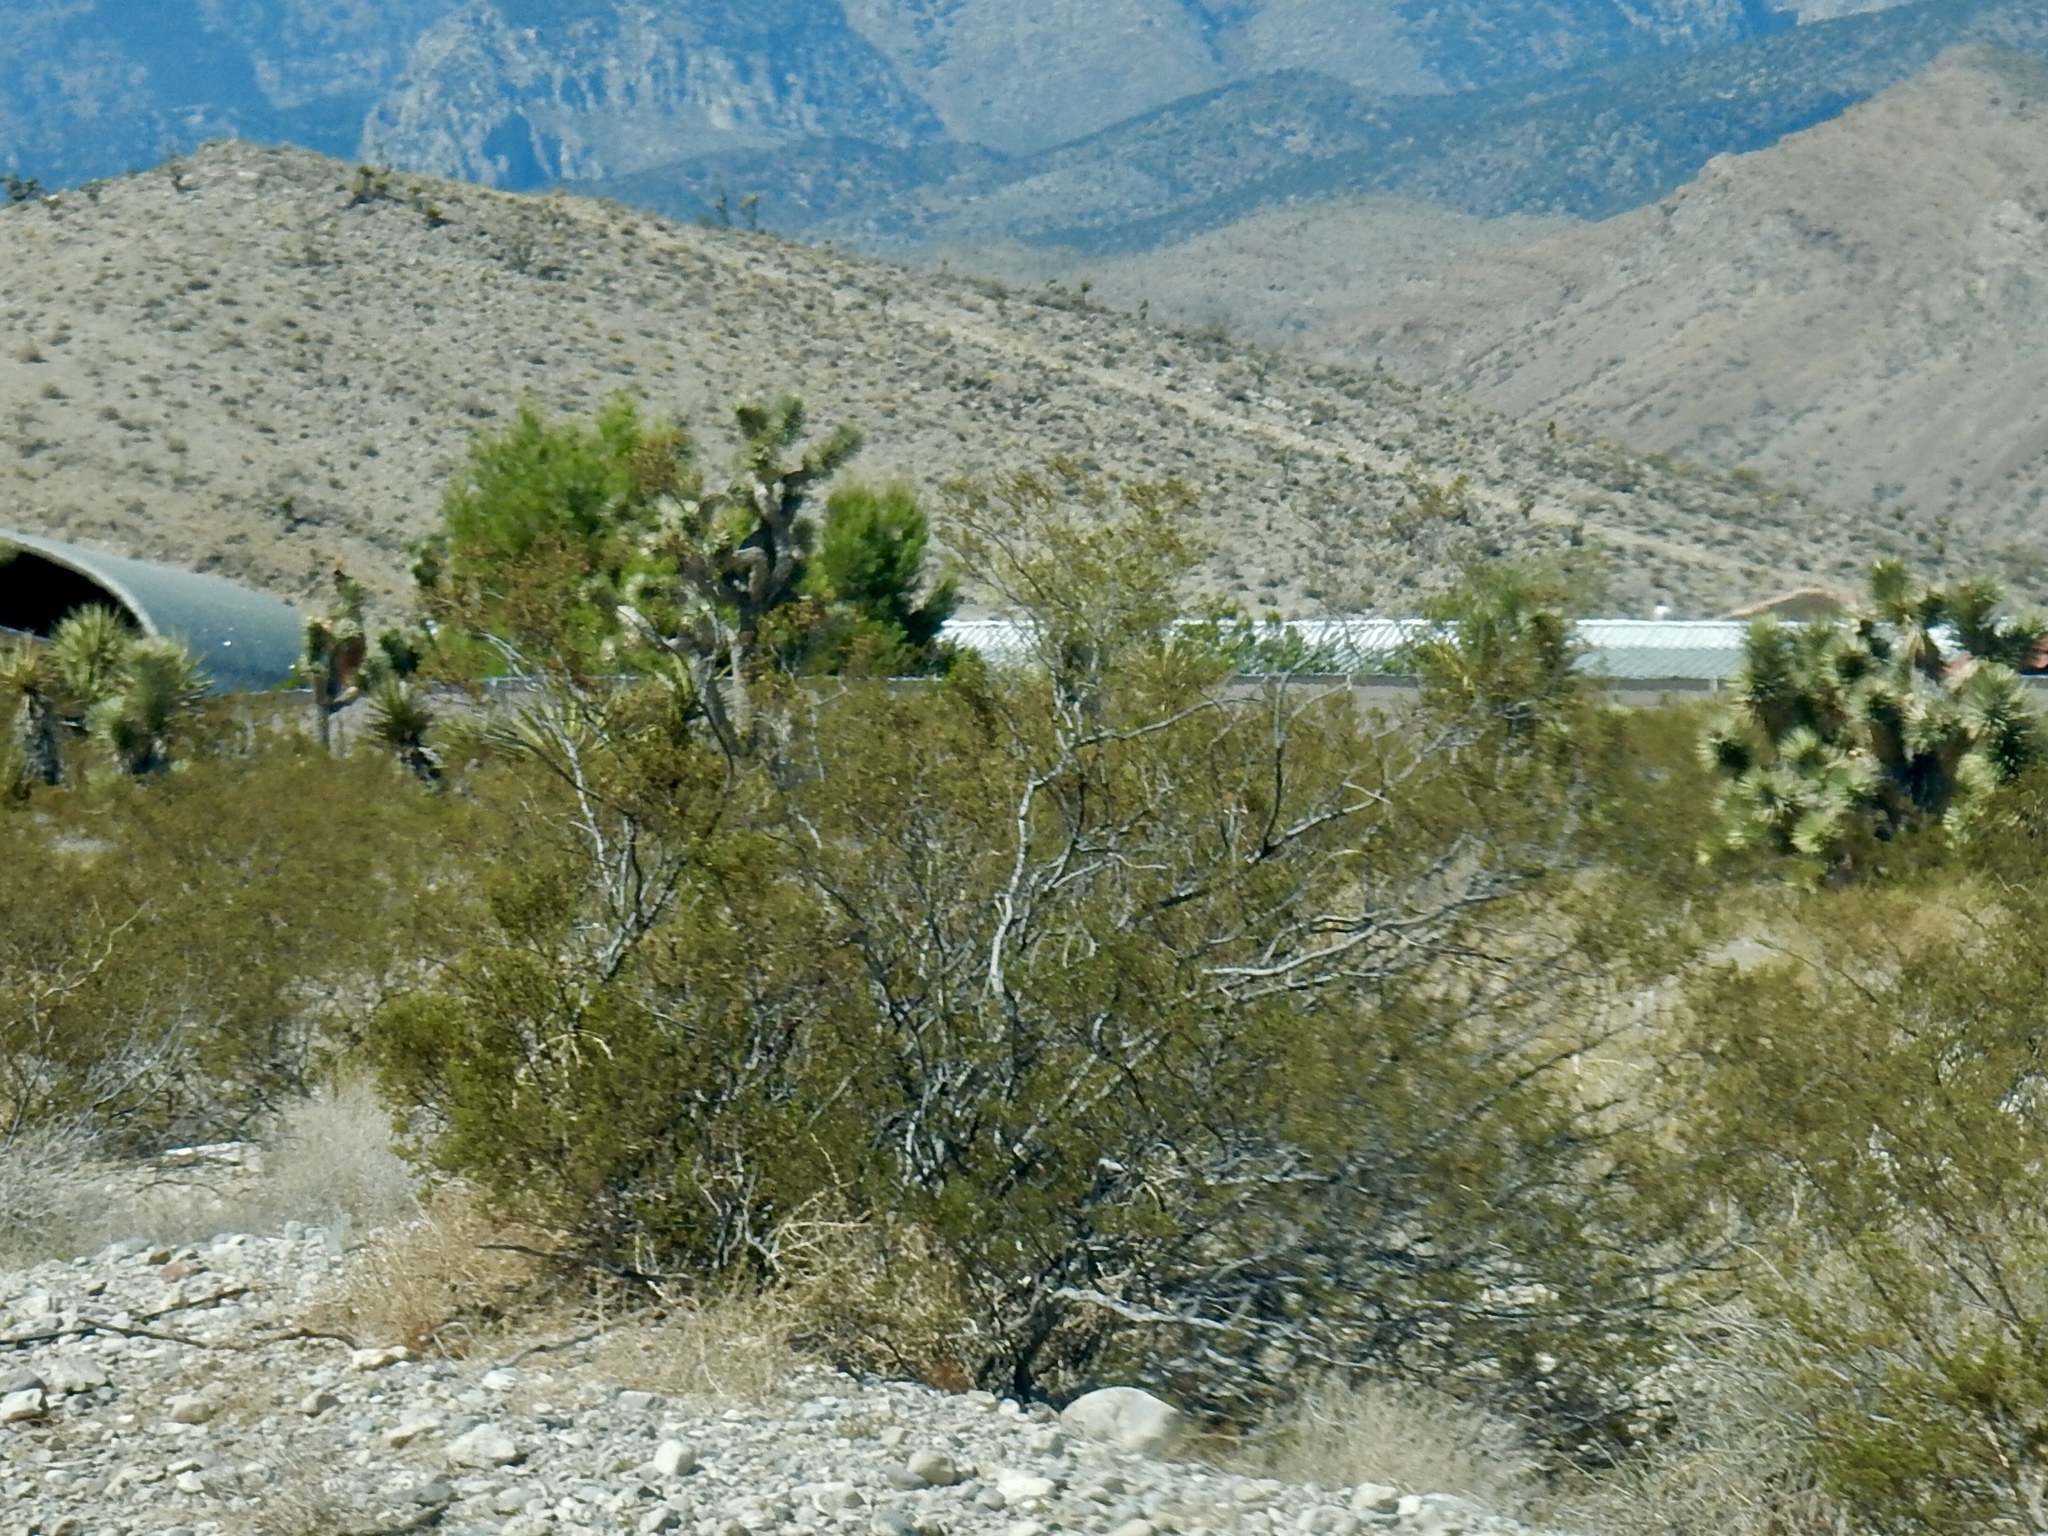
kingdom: Plantae
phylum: Tracheophyta
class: Magnoliopsida
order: Zygophyllales
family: Zygophyllaceae
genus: Larrea
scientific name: Larrea tridentata
